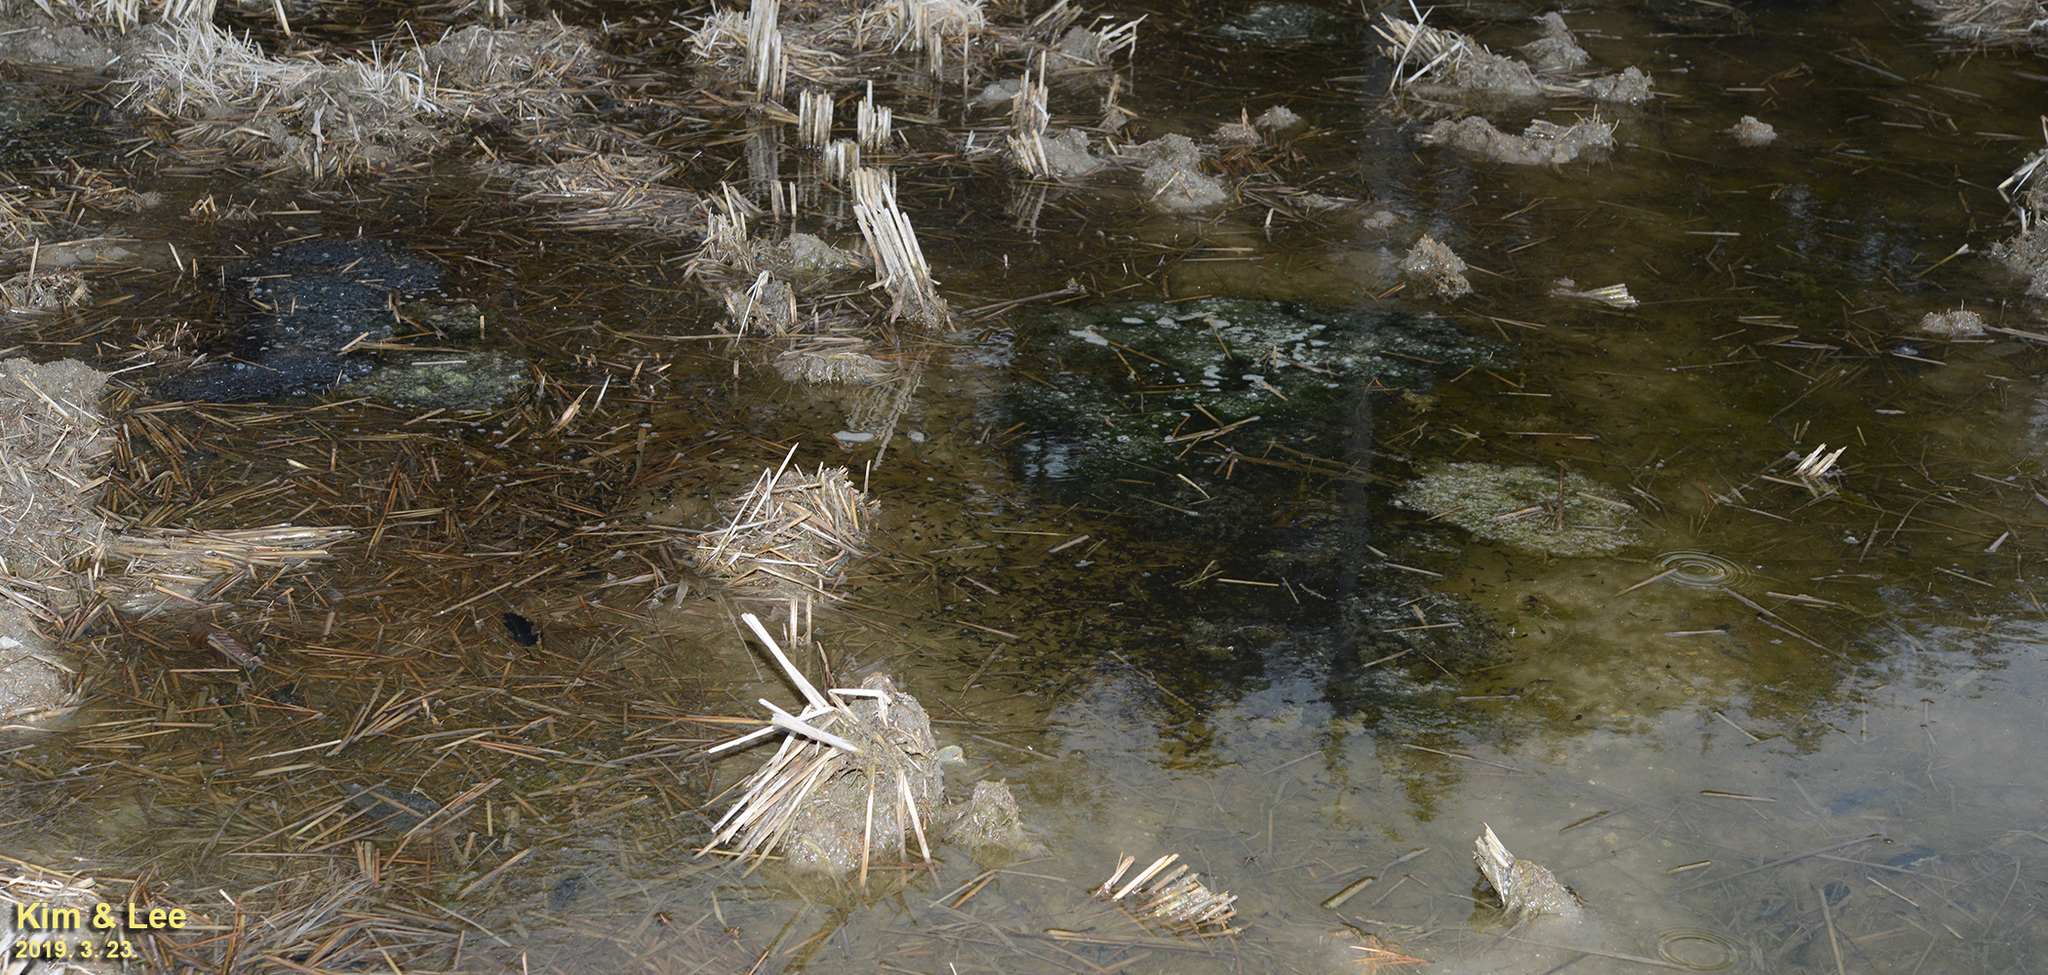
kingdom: Animalia
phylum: Chordata
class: Amphibia
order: Anura
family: Ranidae
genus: Rana
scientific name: Rana uenoi
